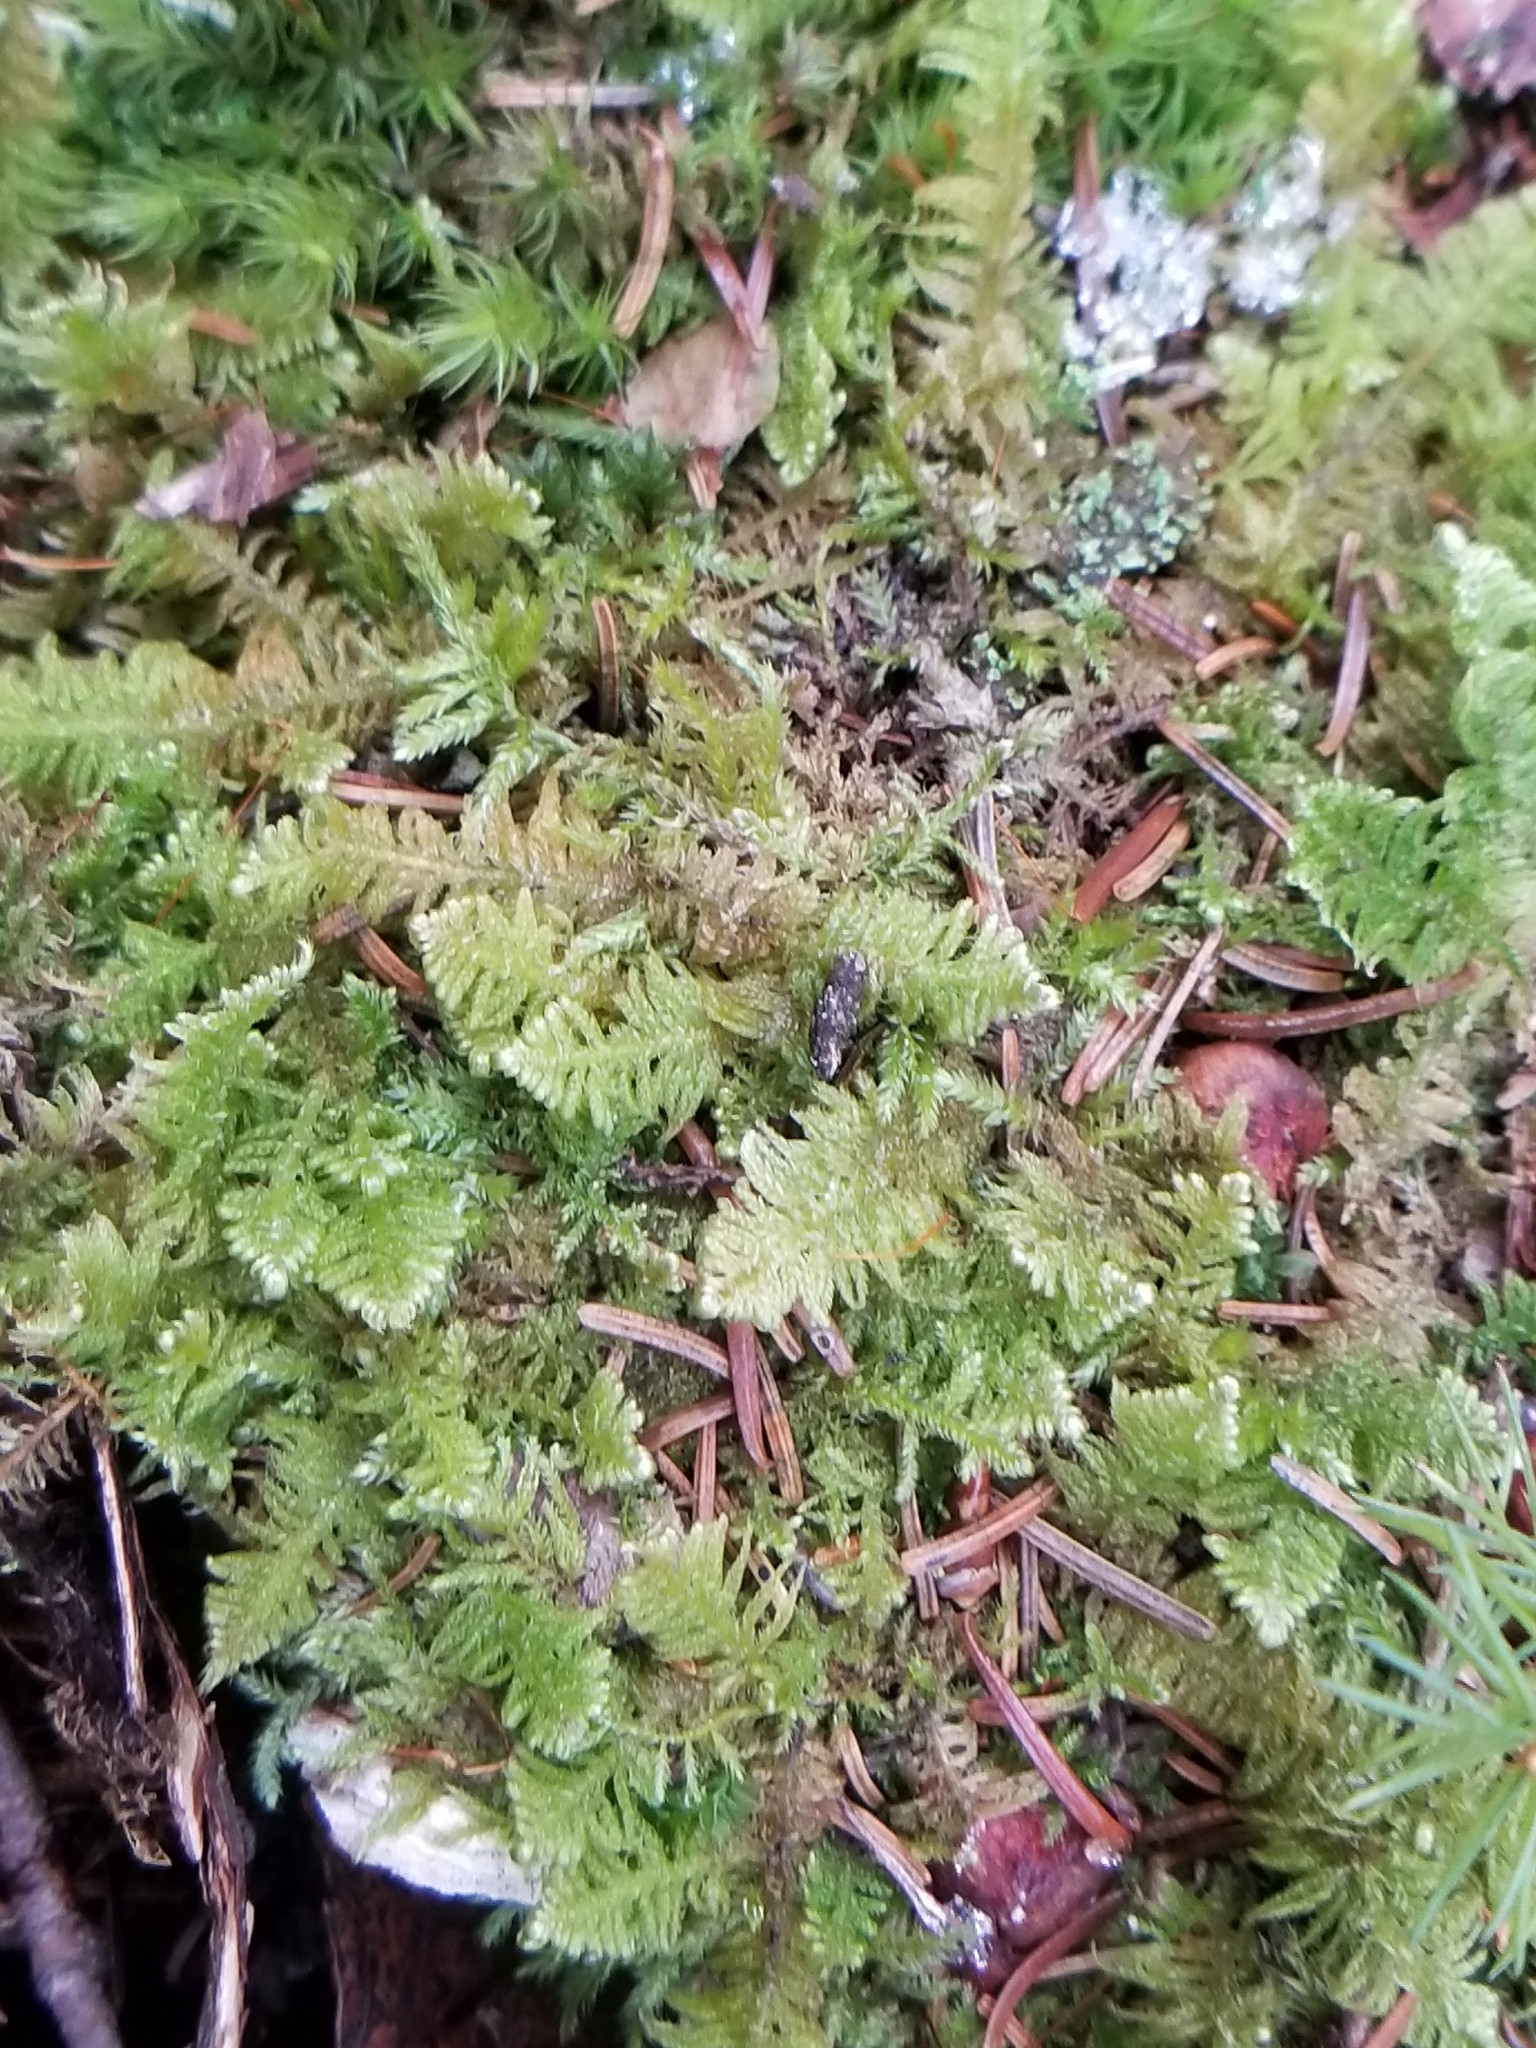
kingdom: Plantae
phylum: Bryophyta
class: Bryopsida
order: Hypnales
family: Pylaisiaceae
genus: Ptilium
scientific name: Ptilium crista-castrensis
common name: Knight's plume moss
